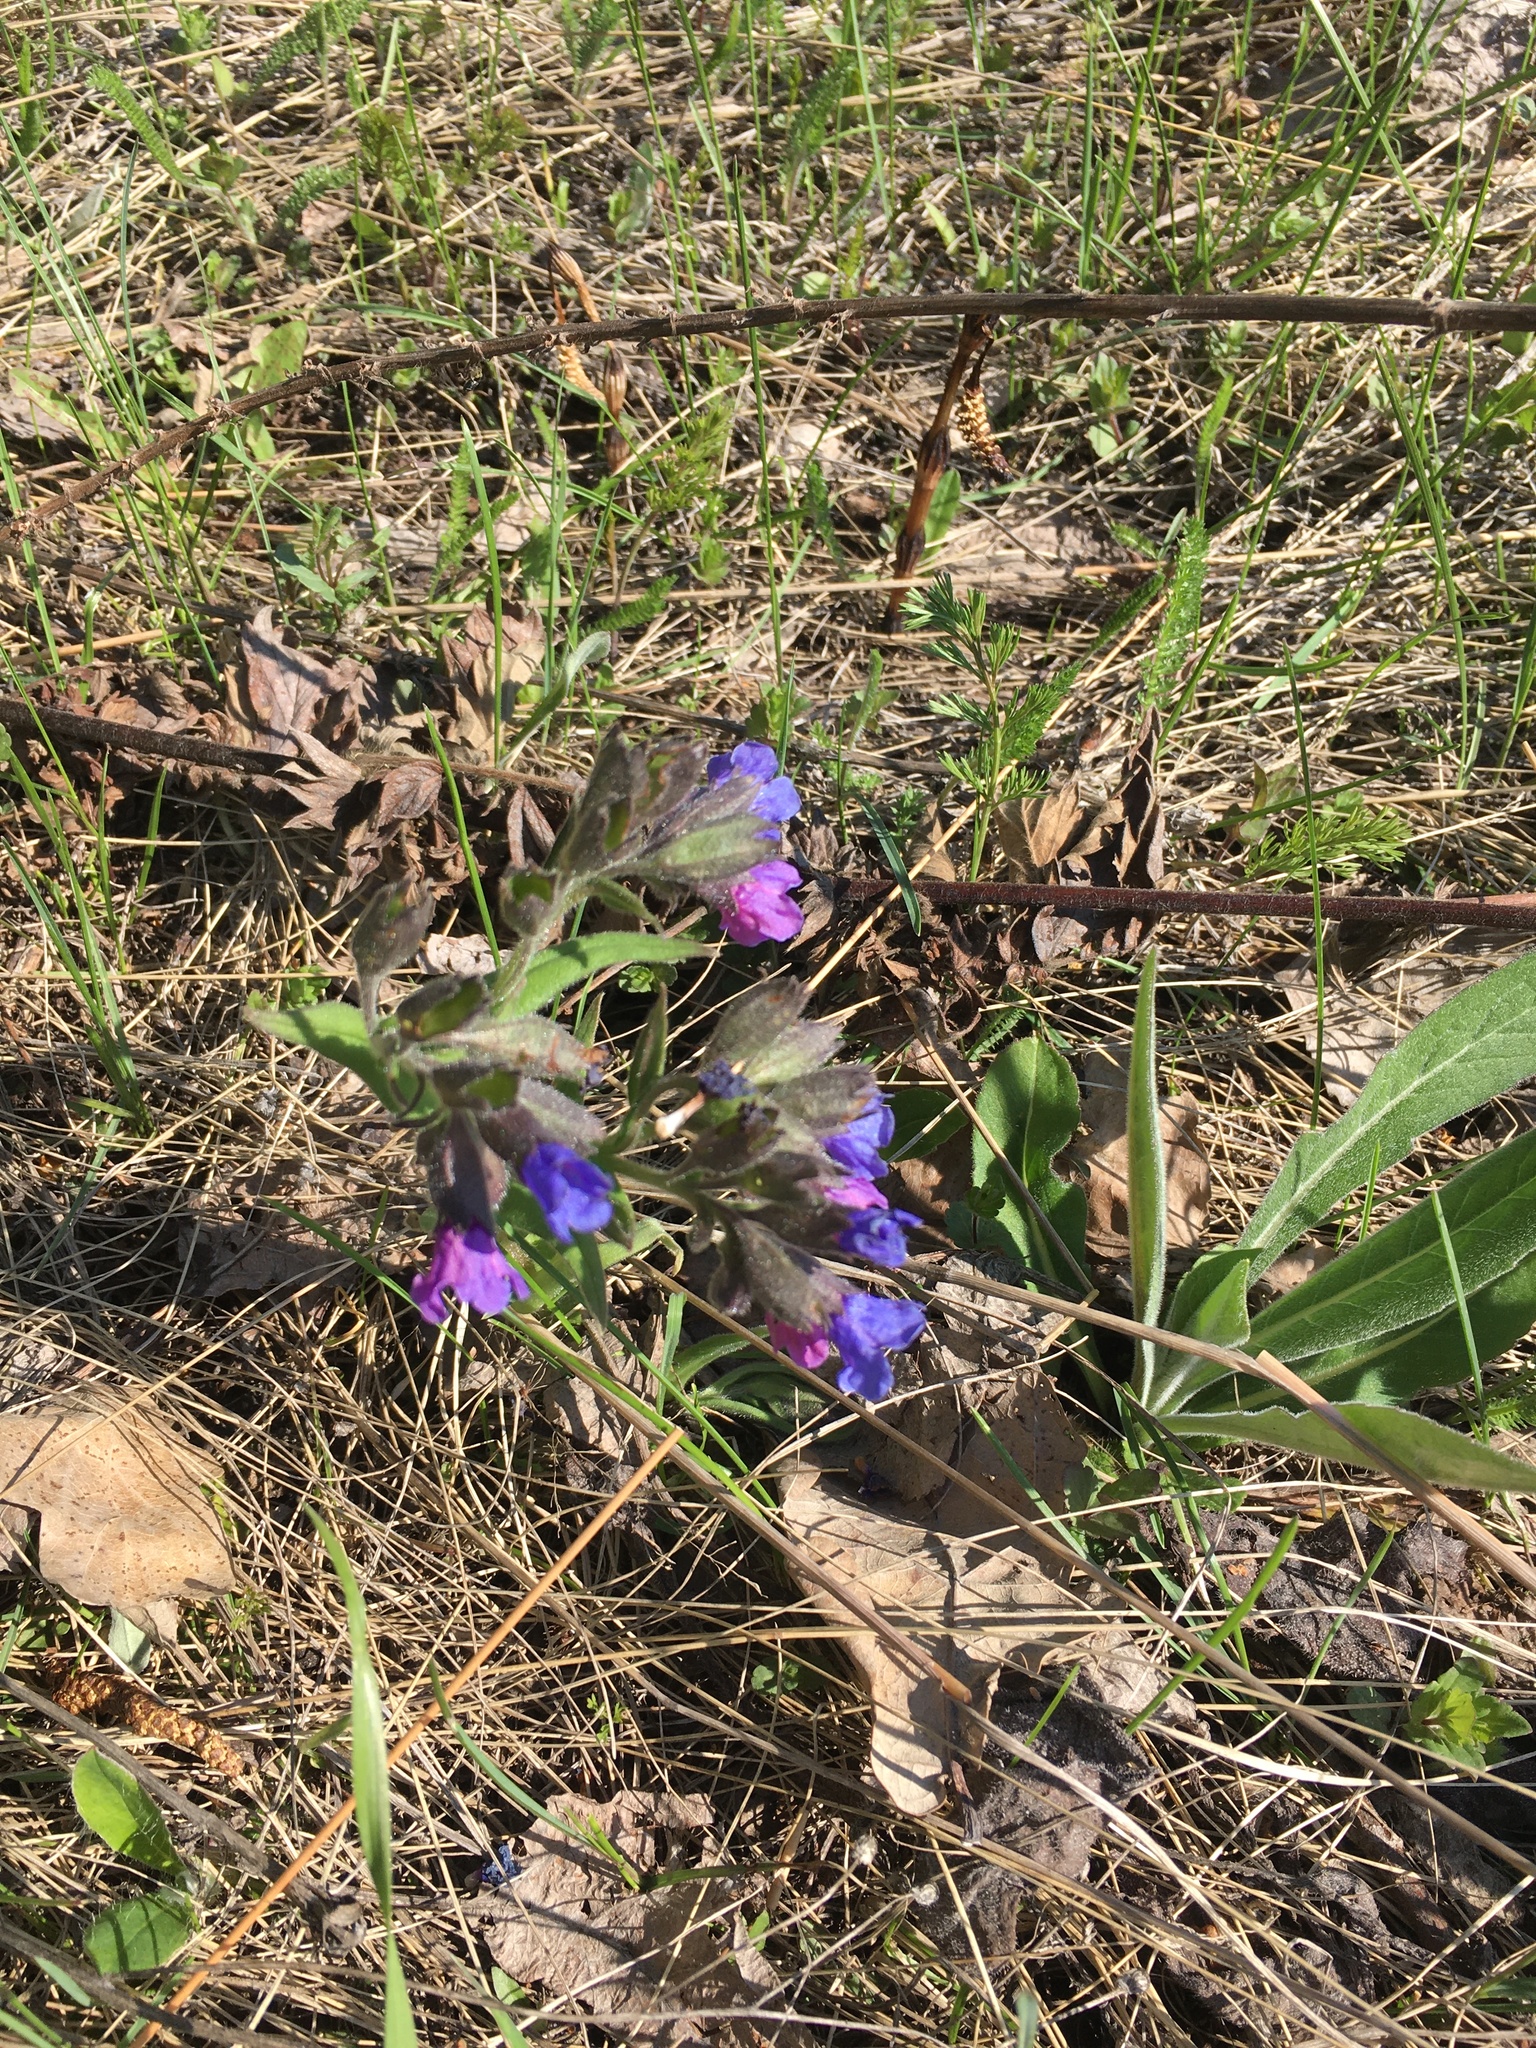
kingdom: Plantae
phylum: Tracheophyta
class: Magnoliopsida
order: Boraginales
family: Boraginaceae
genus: Pulmonaria
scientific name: Pulmonaria angustifolia
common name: Blue cowslip
